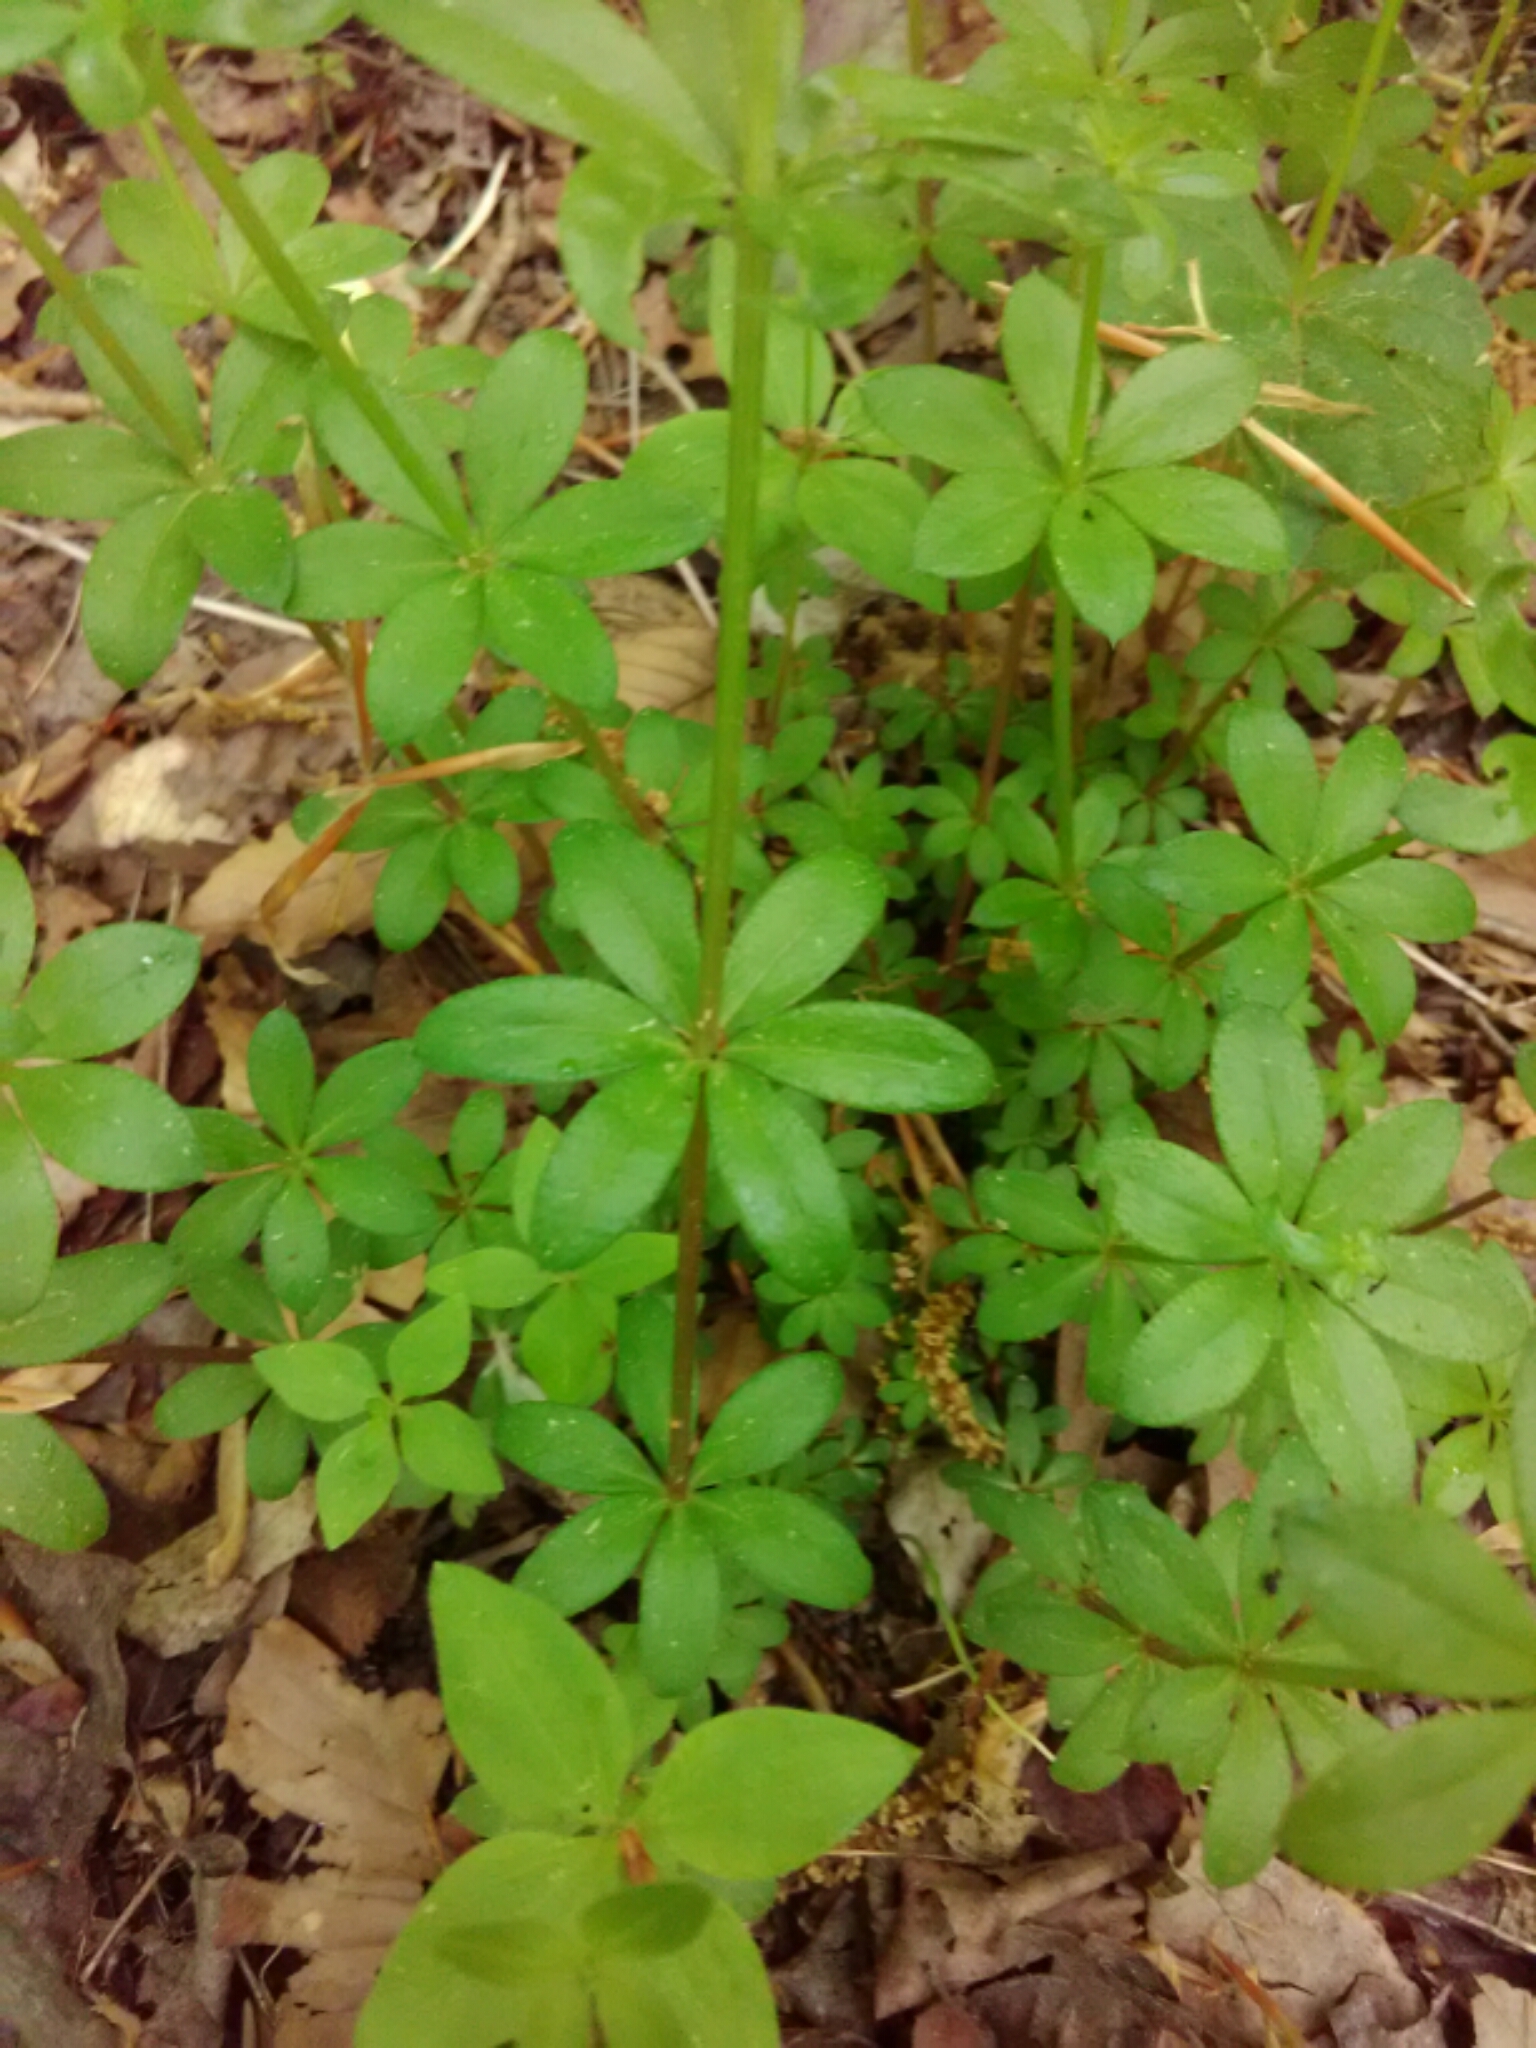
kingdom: Plantae
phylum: Tracheophyta
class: Magnoliopsida
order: Gentianales
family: Rubiaceae
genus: Galium
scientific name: Galium triflorum
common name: Fragrant bedstraw
